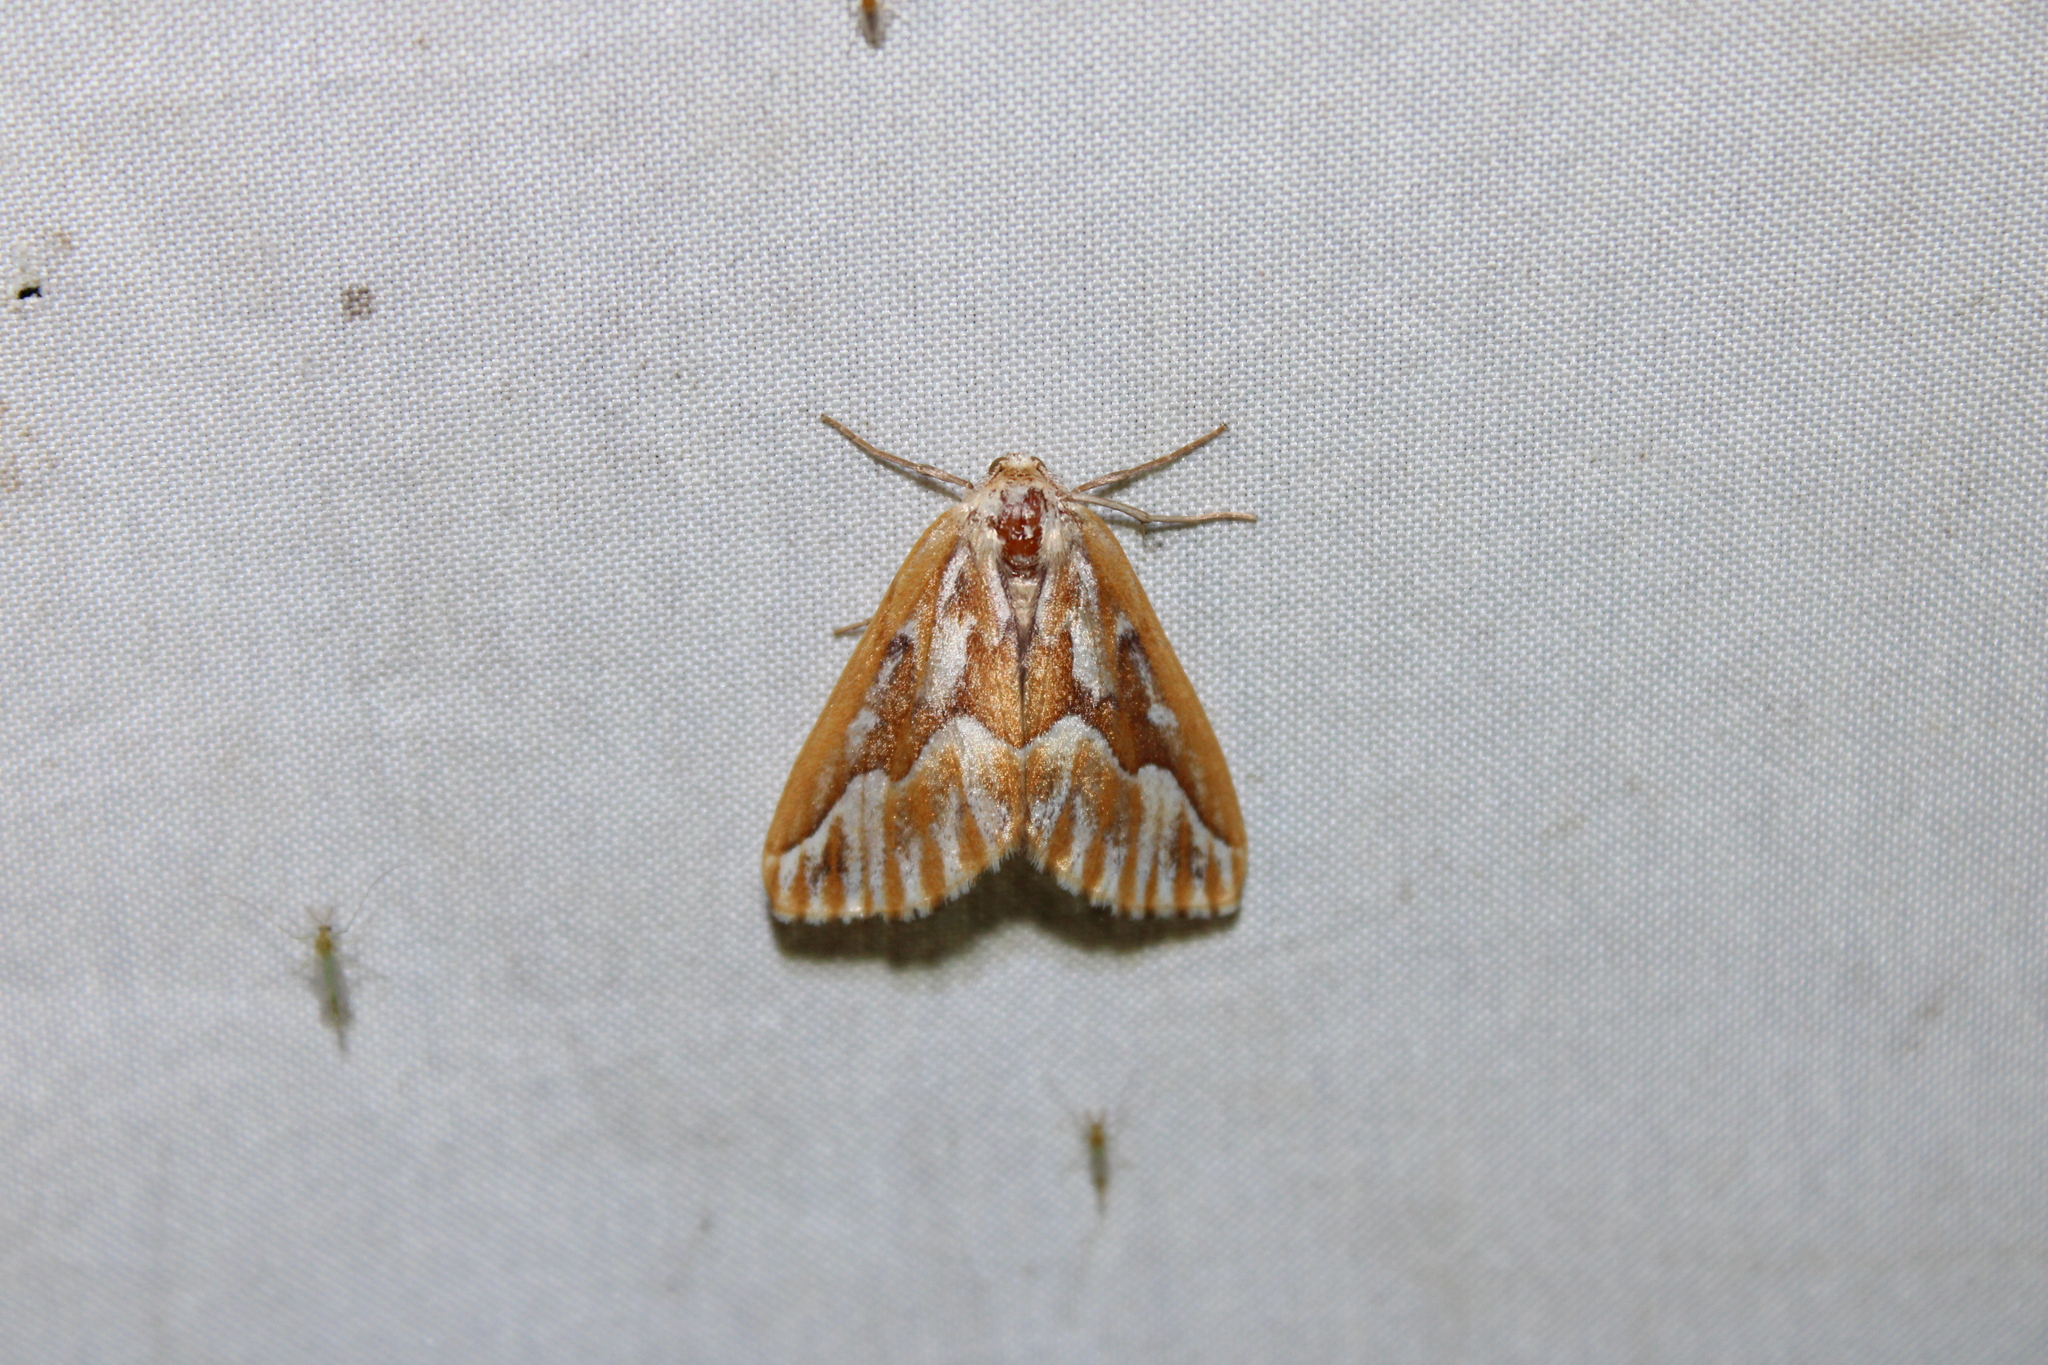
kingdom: Animalia
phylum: Arthropoda
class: Insecta
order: Lepidoptera
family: Geometridae
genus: Caripeta
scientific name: Caripeta piniata
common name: Northern pine looper moth
